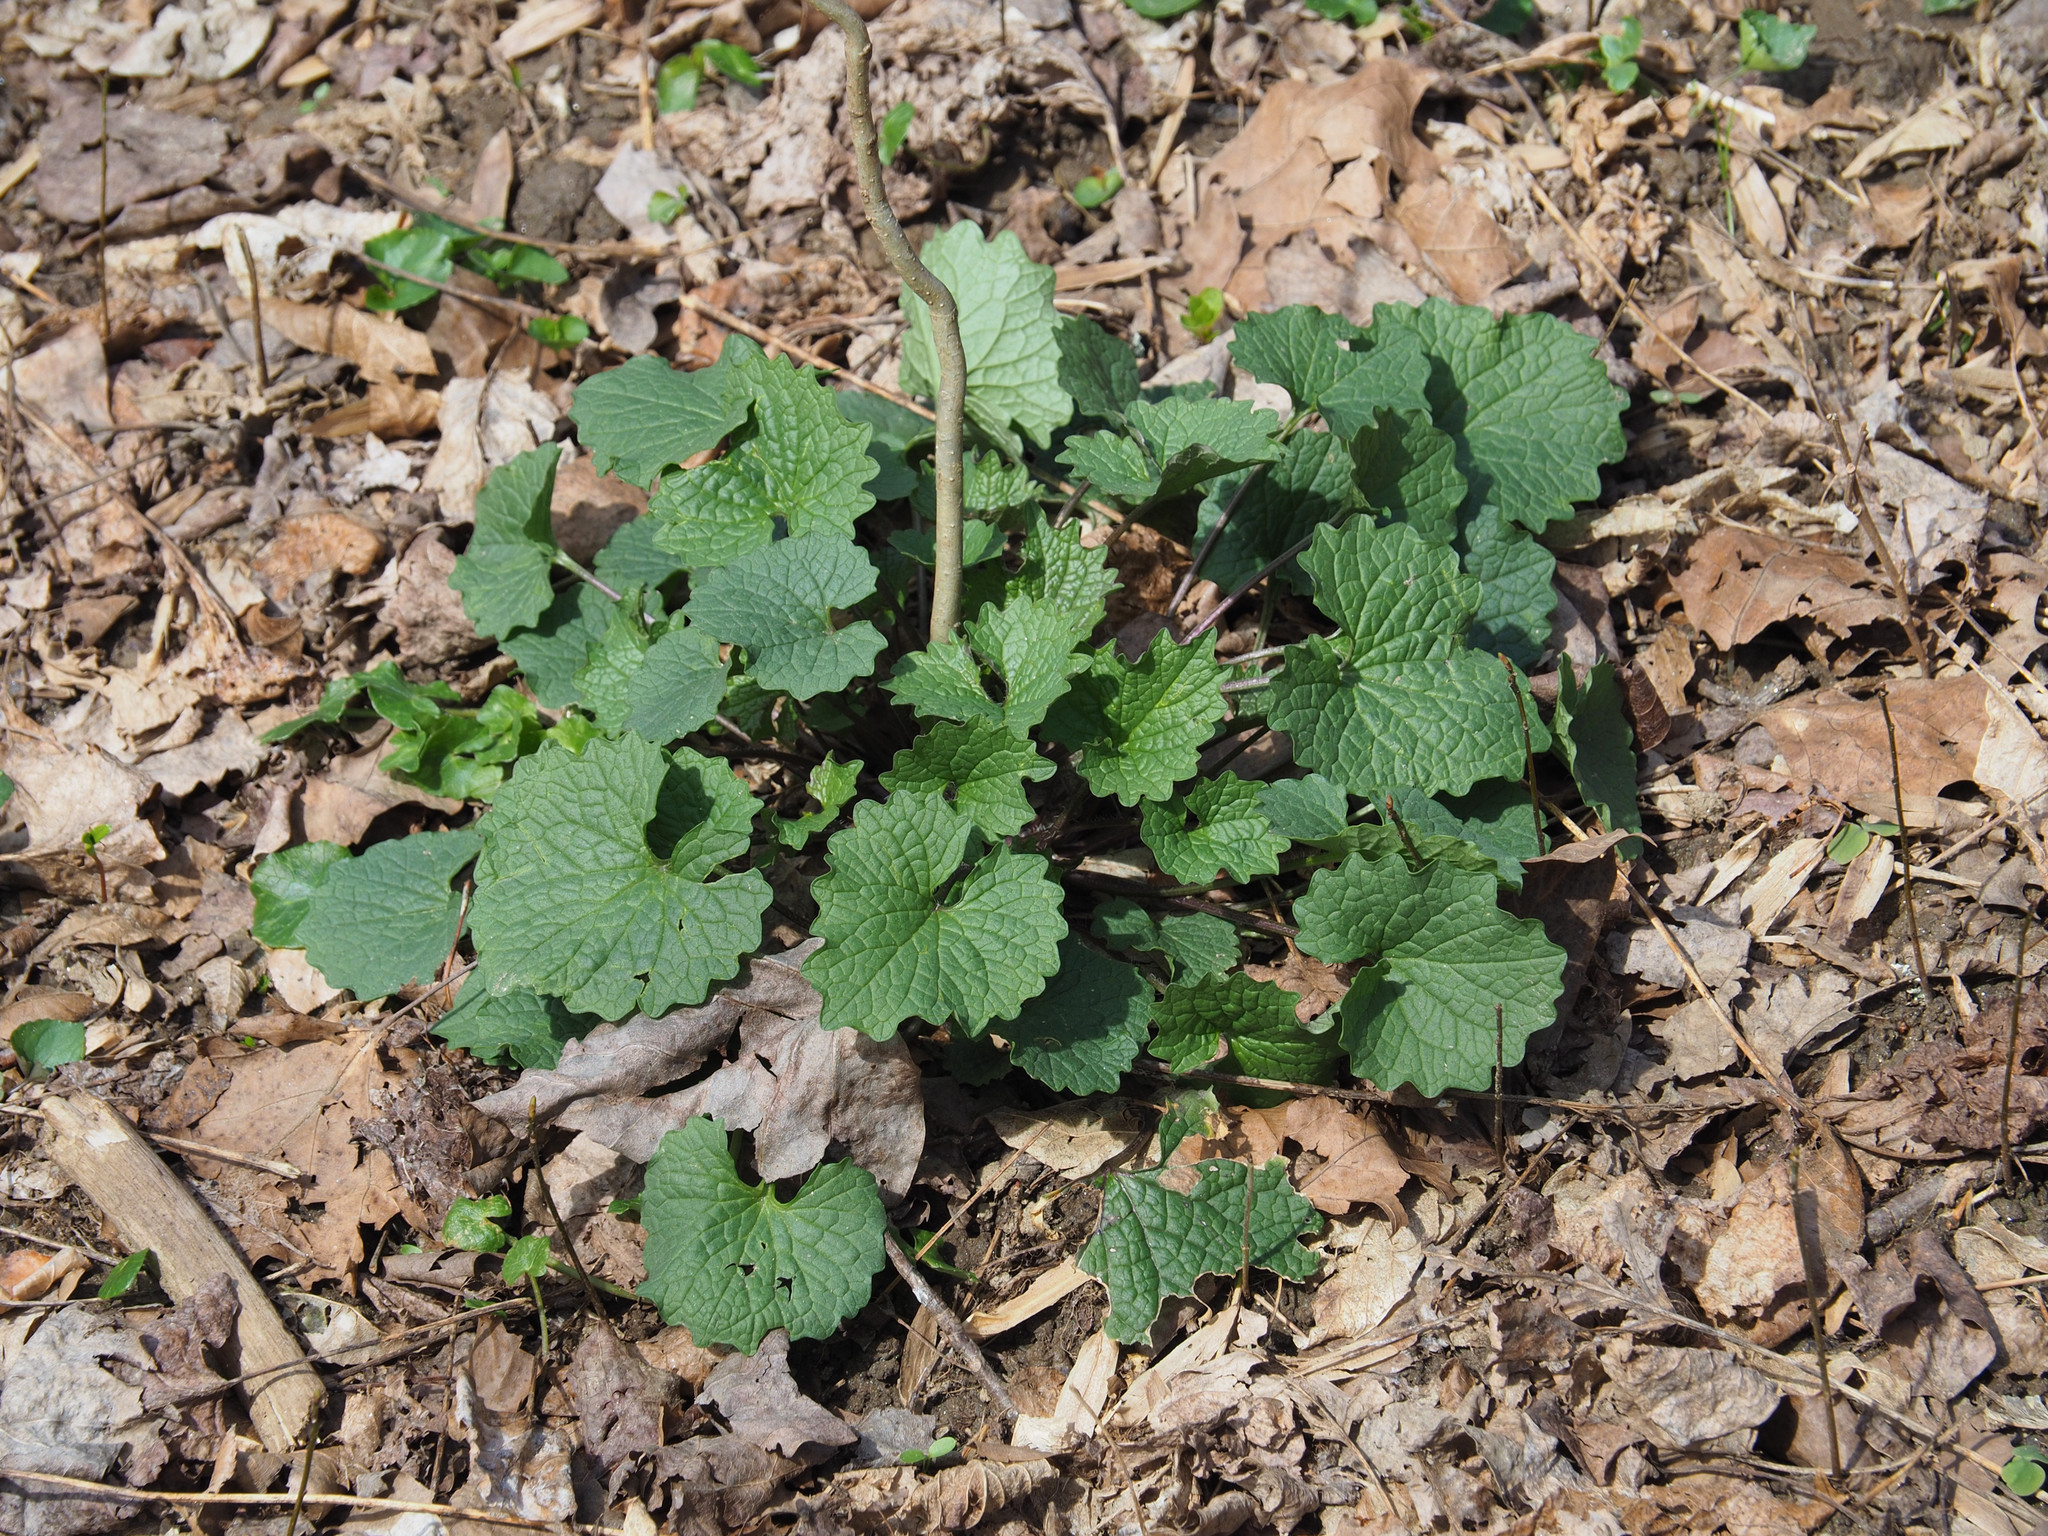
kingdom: Plantae
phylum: Tracheophyta
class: Magnoliopsida
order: Brassicales
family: Brassicaceae
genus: Alliaria
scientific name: Alliaria petiolata
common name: Garlic mustard
